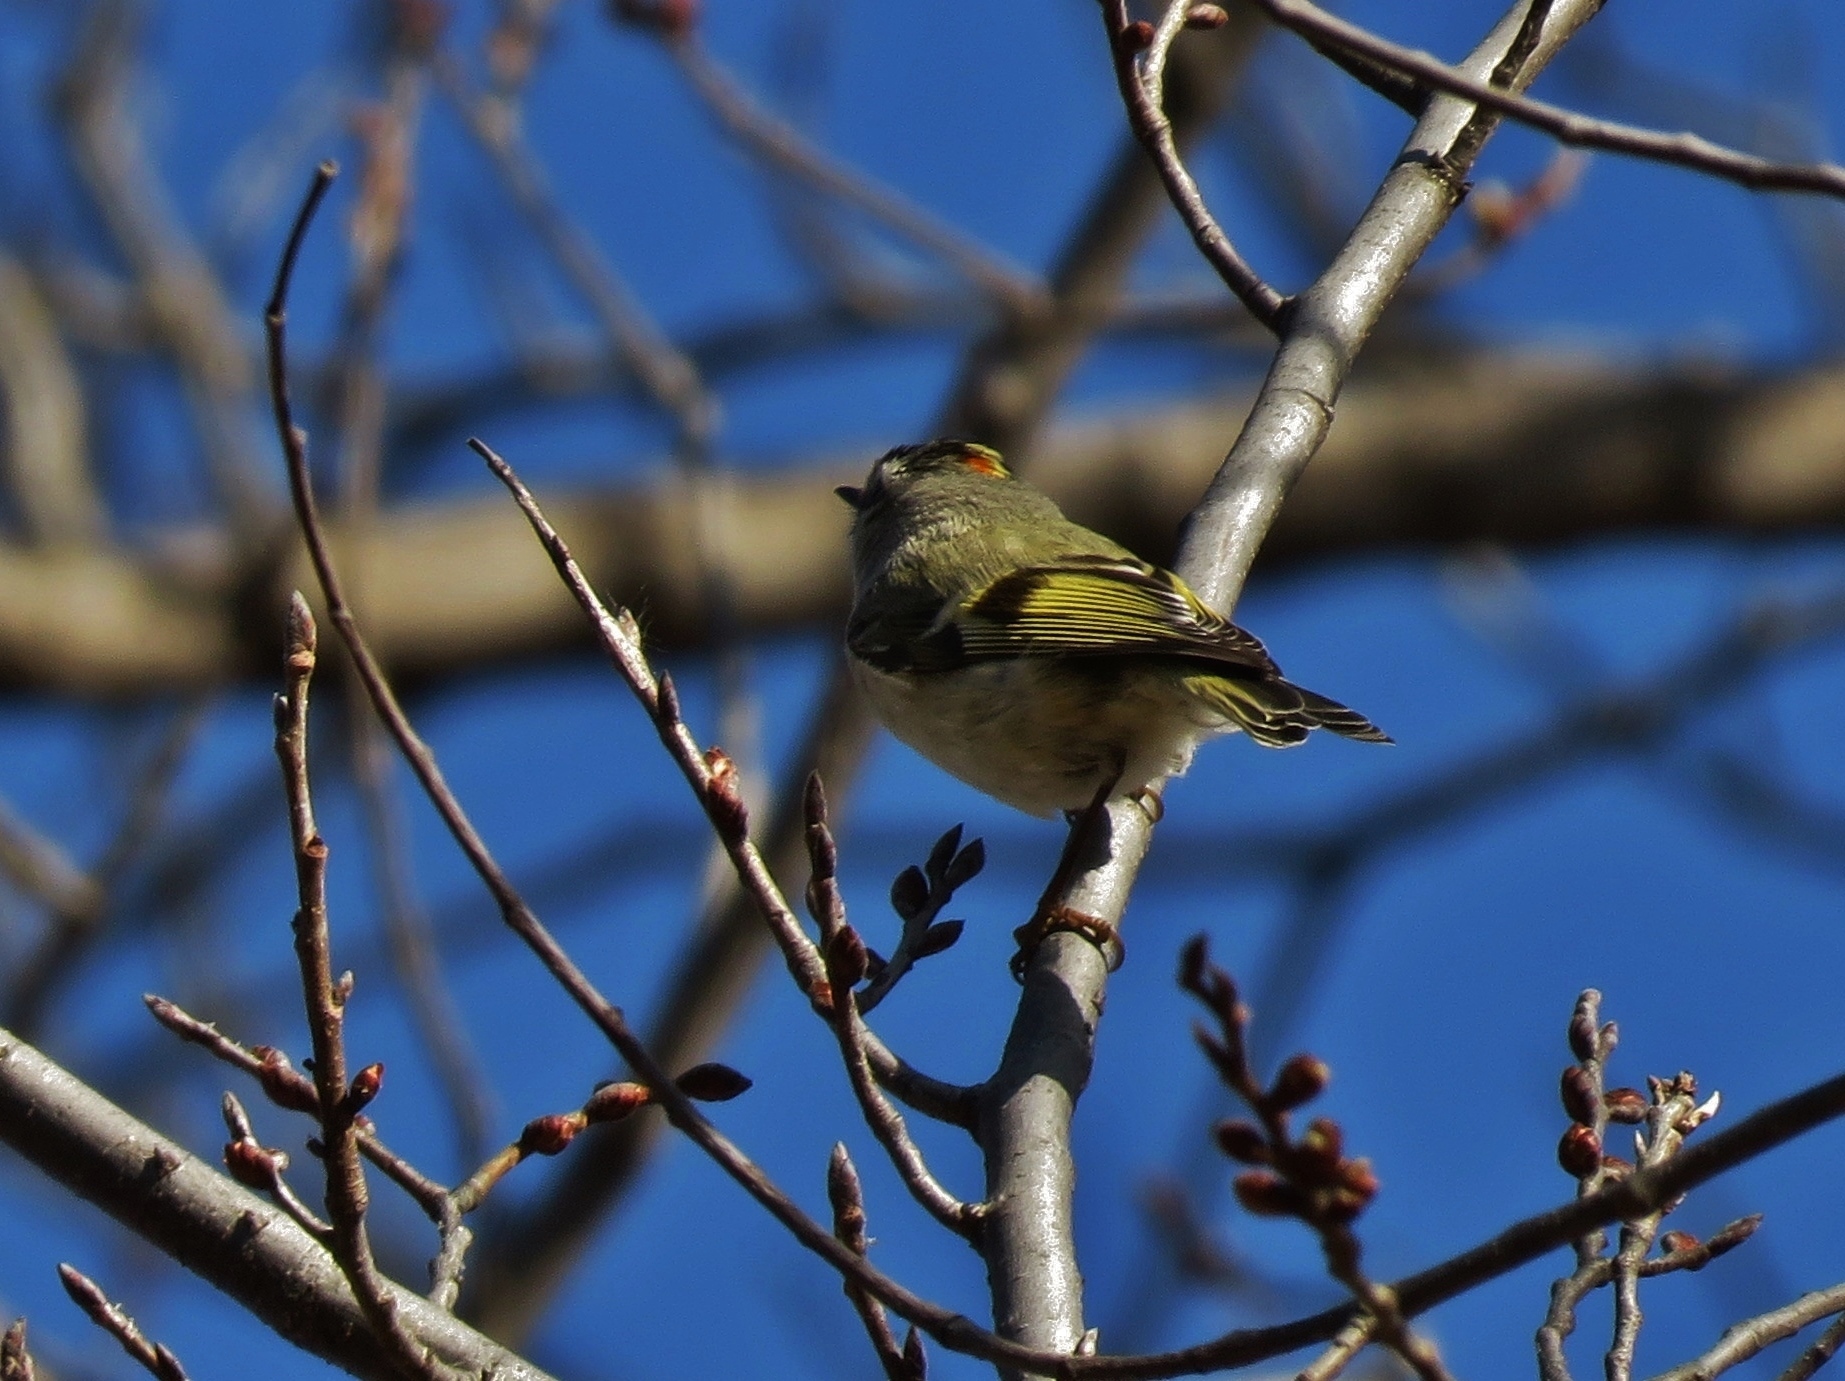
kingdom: Animalia
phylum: Chordata
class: Aves
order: Passeriformes
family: Regulidae
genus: Regulus
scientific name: Regulus satrapa
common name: Golden-crowned kinglet
